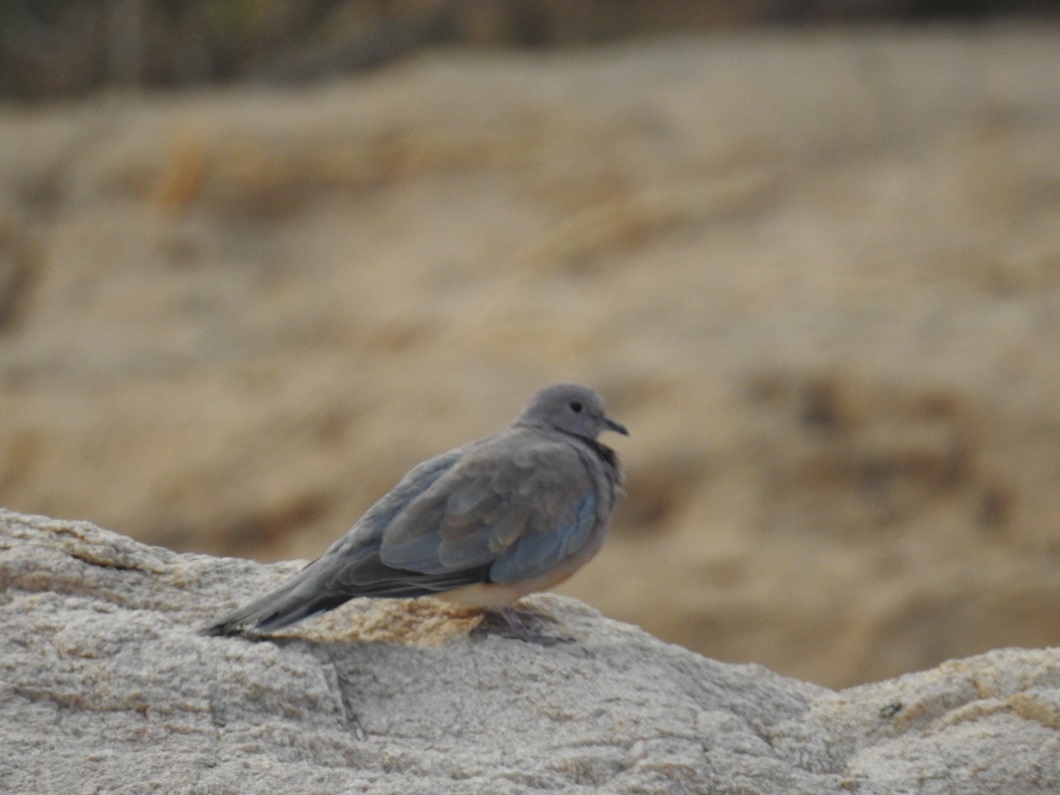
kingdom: Animalia
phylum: Chordata
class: Aves
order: Columbiformes
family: Columbidae
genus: Spilopelia
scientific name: Spilopelia senegalensis
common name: Laughing dove
